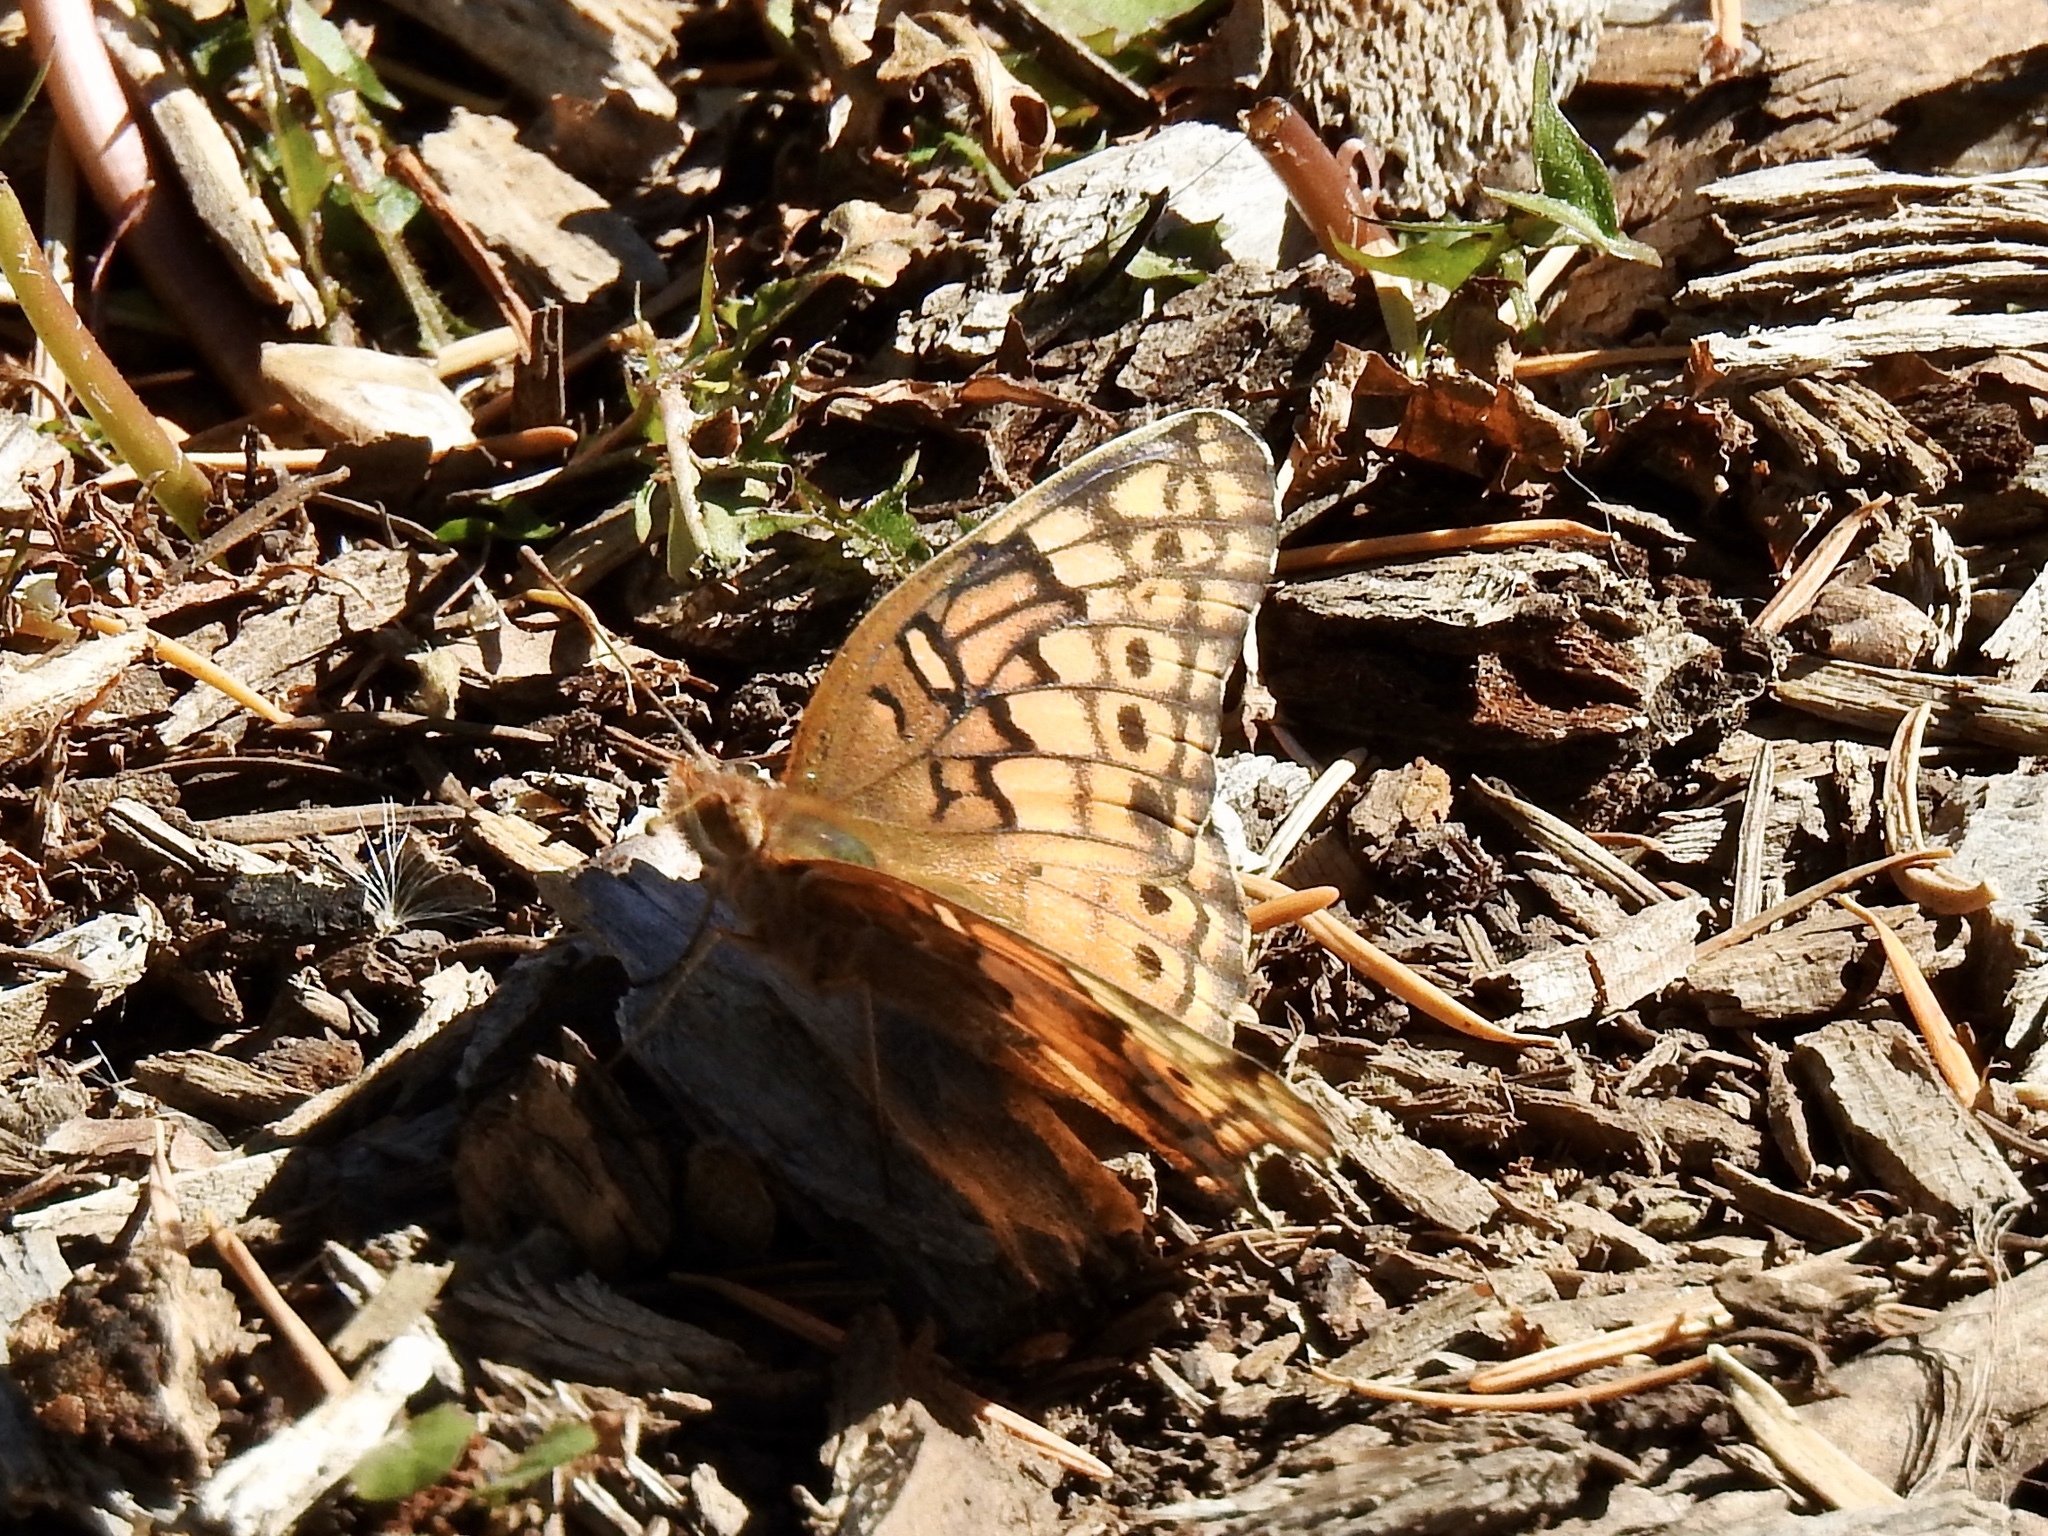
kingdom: Animalia
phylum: Arthropoda
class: Insecta
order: Lepidoptera
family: Nymphalidae
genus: Euptoieta
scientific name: Euptoieta claudia
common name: Variegated fritillary
